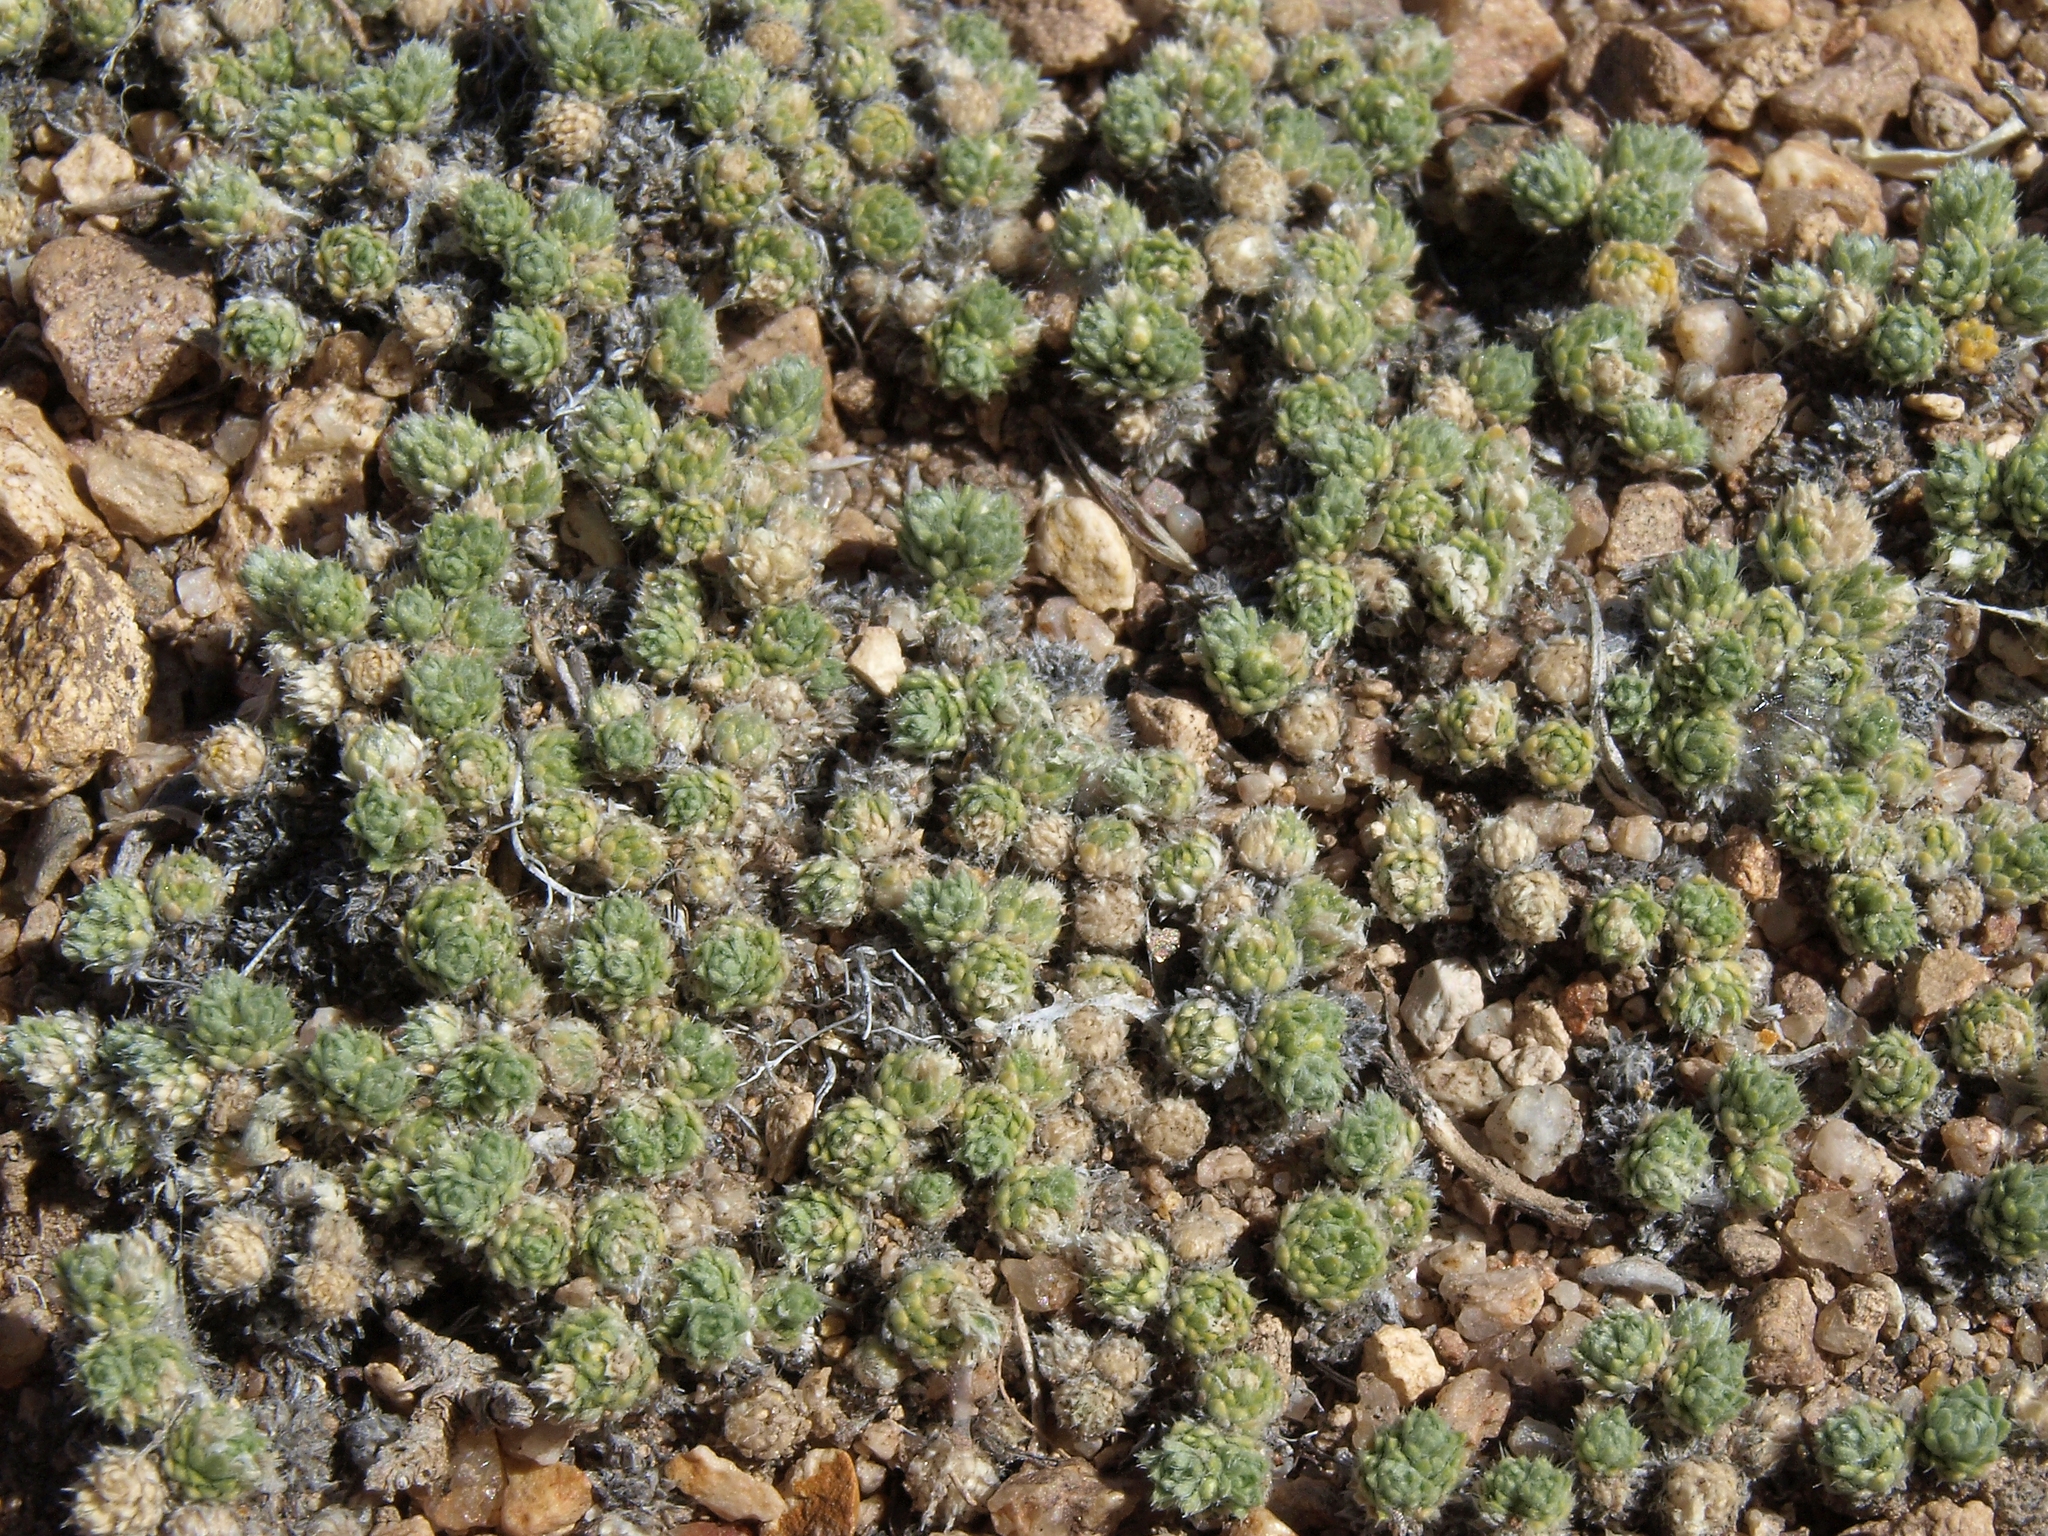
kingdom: Plantae
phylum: Tracheophyta
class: Magnoliopsida
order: Brassicales
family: Brassicaceae
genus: Cusickiella
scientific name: Cusickiella quadricostata
